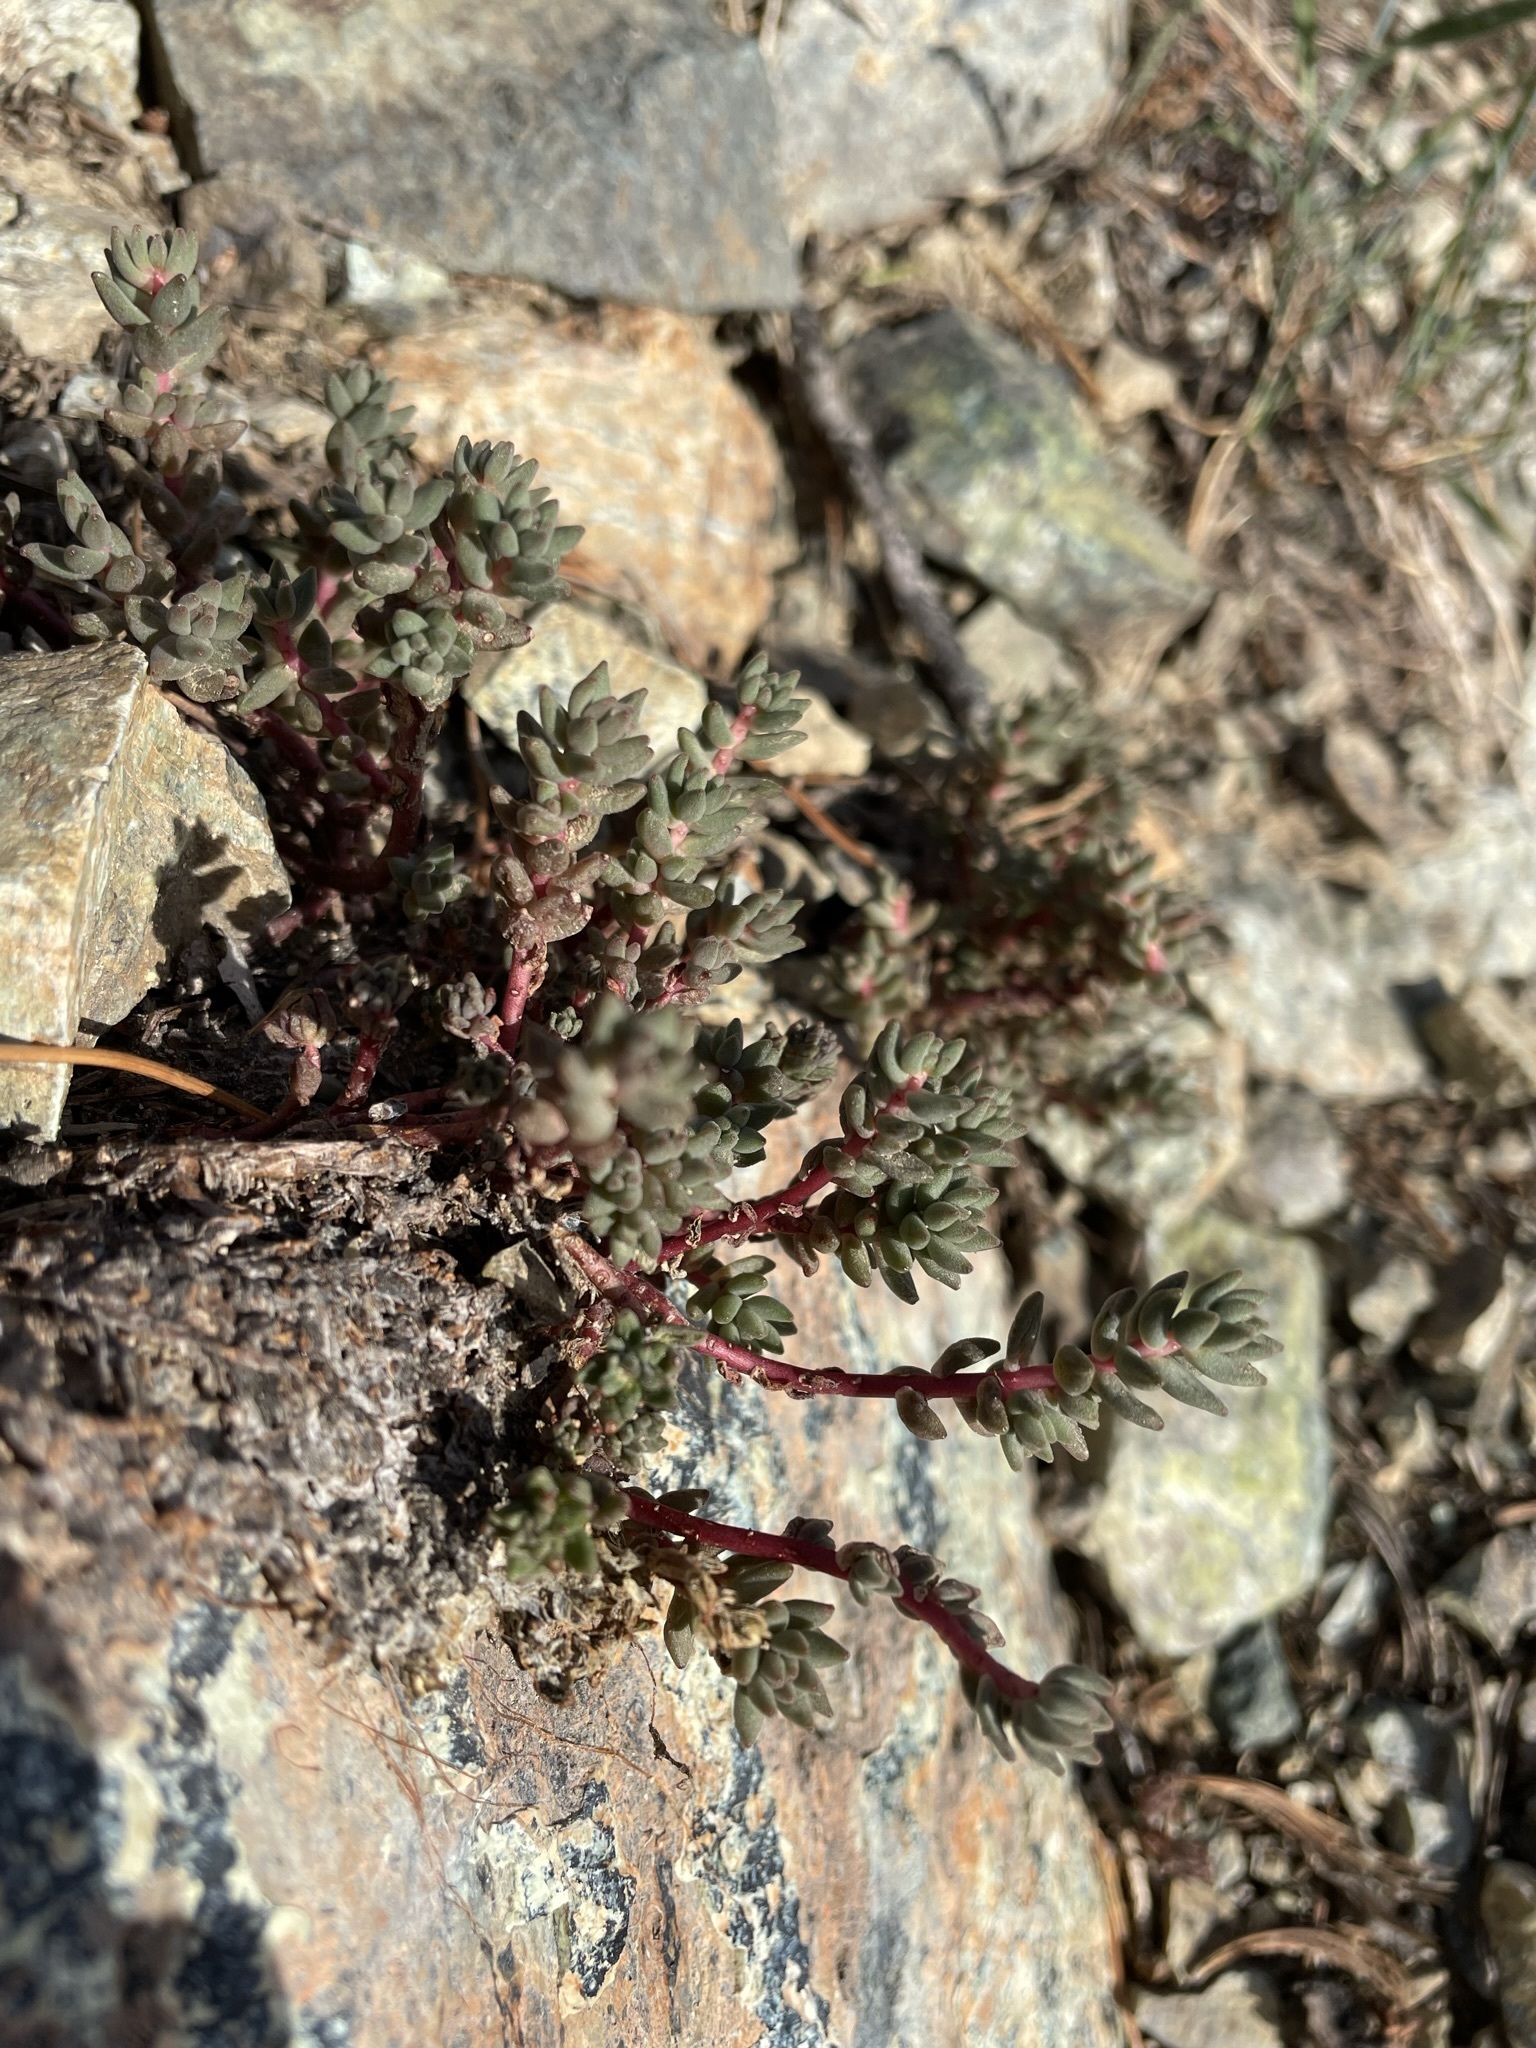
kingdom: Plantae
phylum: Tracheophyta
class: Magnoliopsida
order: Saxifragales
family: Crassulaceae
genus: Sedum
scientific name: Sedum rupicola
